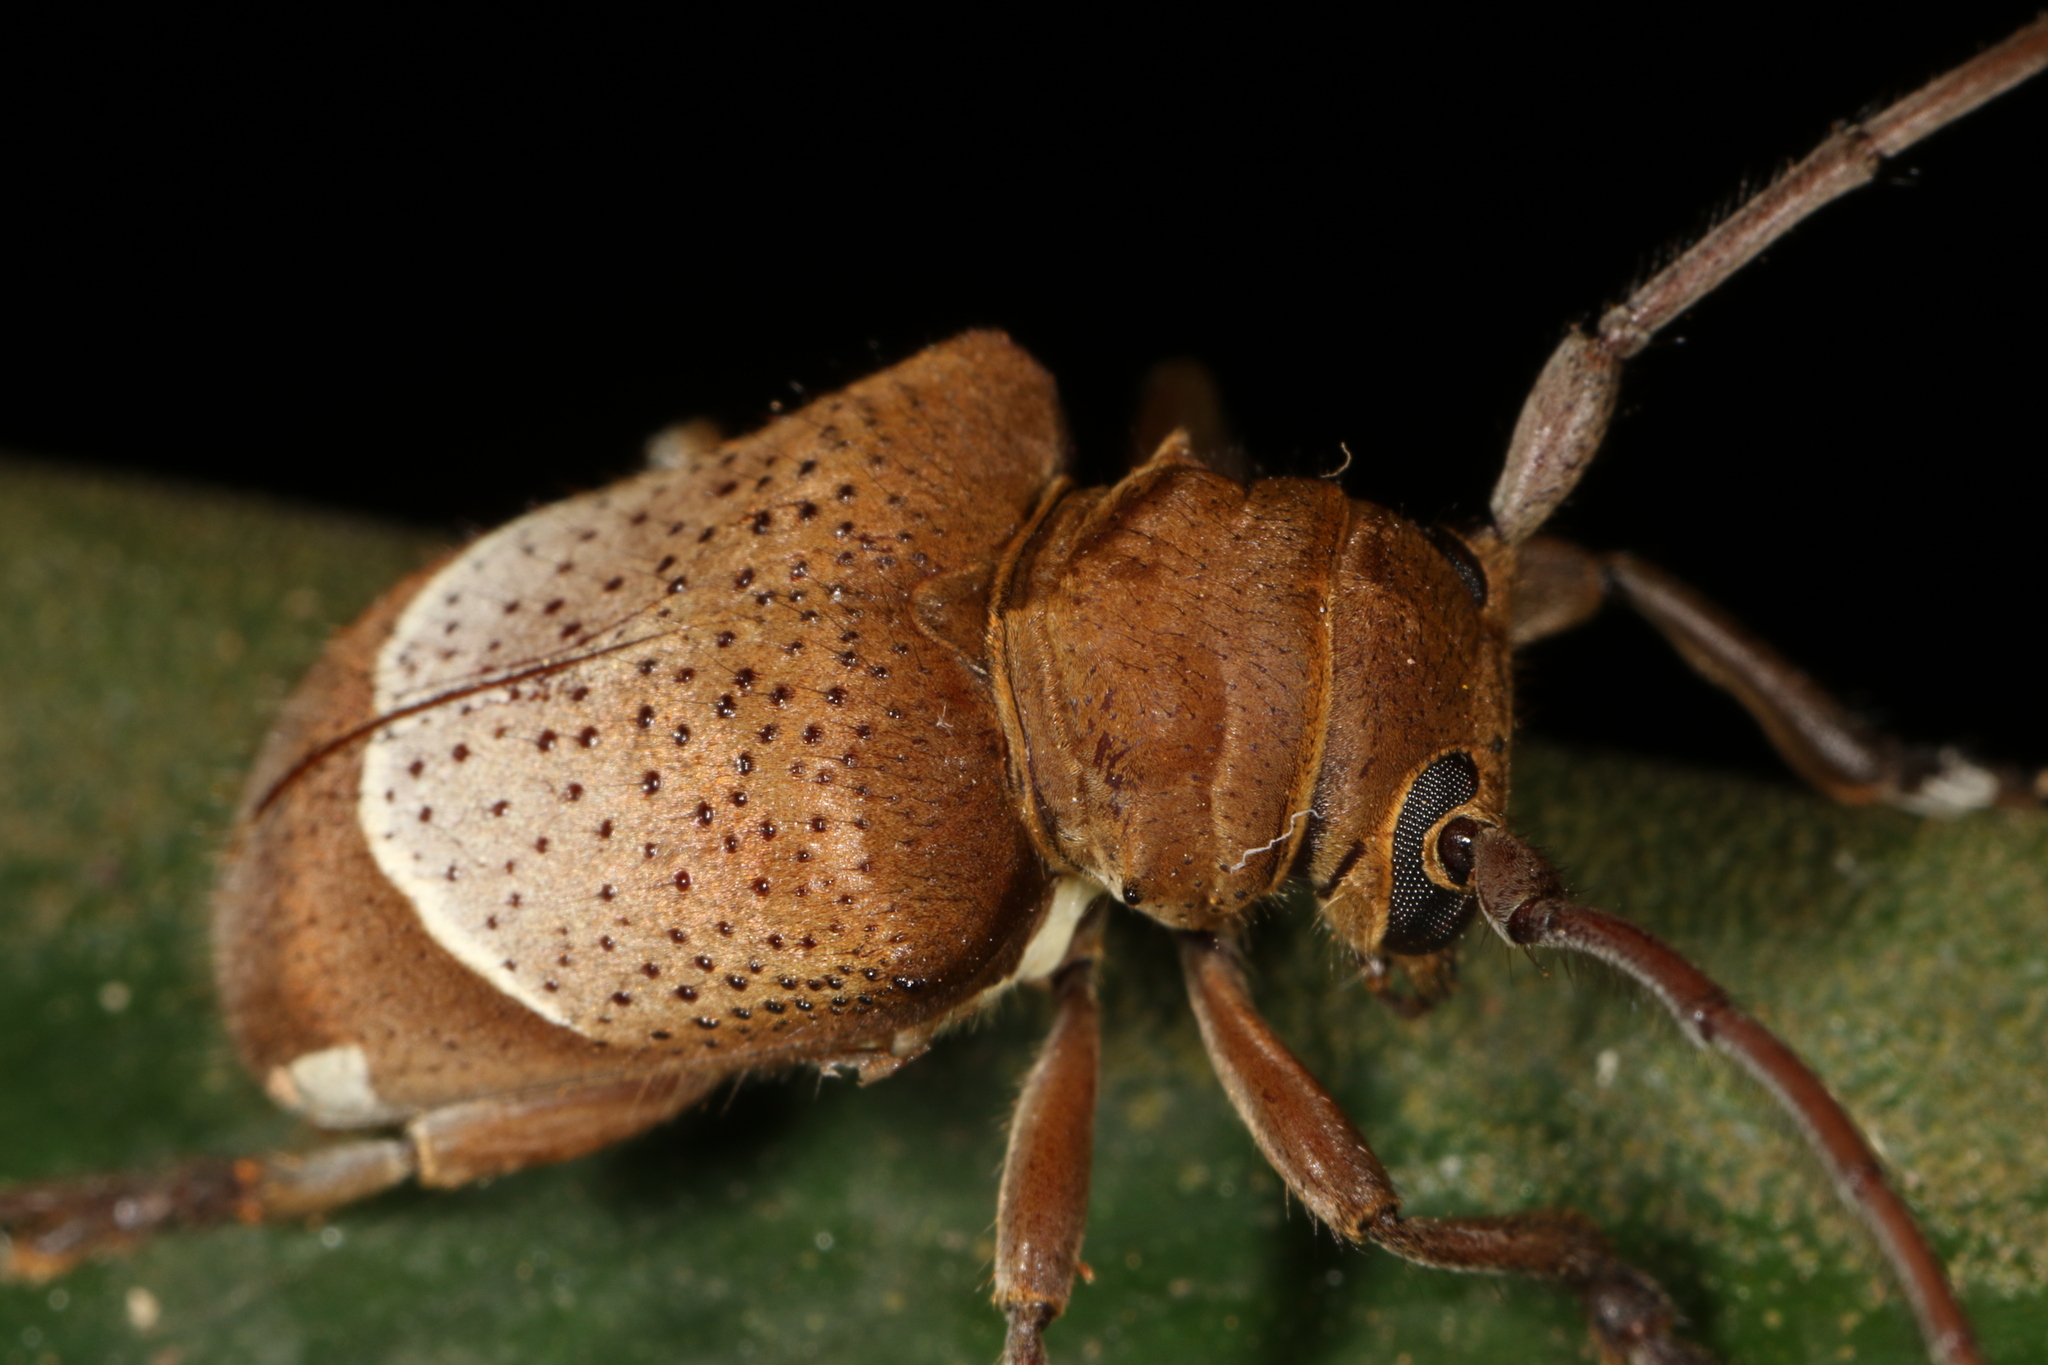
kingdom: Animalia
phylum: Arthropoda
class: Insecta
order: Coleoptera
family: Cerambycidae
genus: Compsosoma
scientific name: Compsosoma phaleratum
